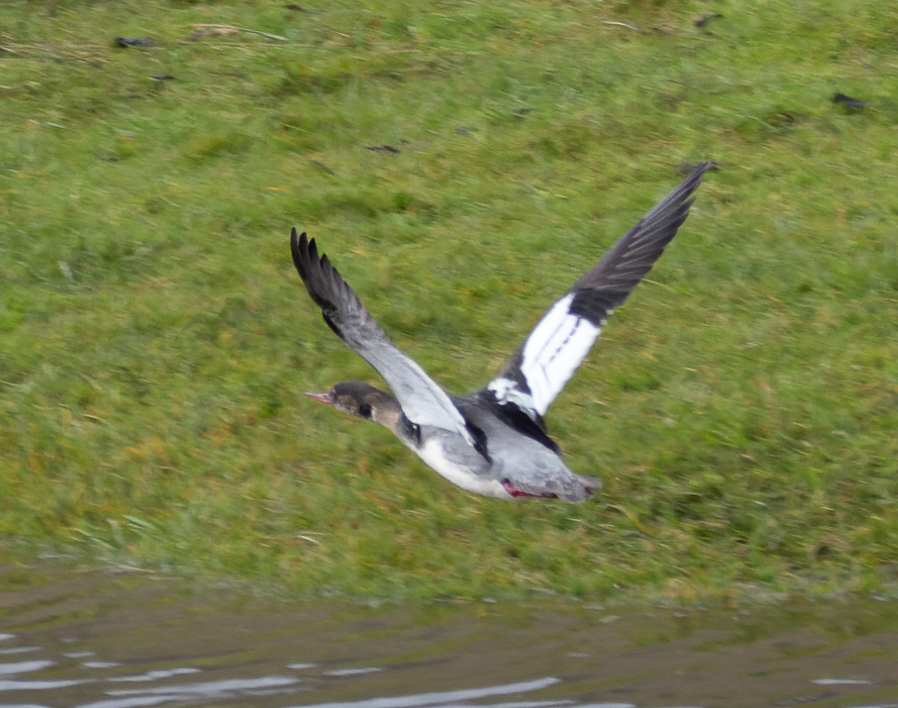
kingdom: Animalia
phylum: Chordata
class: Aves
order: Anseriformes
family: Anatidae
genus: Mergus
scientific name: Mergus serrator
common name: Red-breasted merganser
